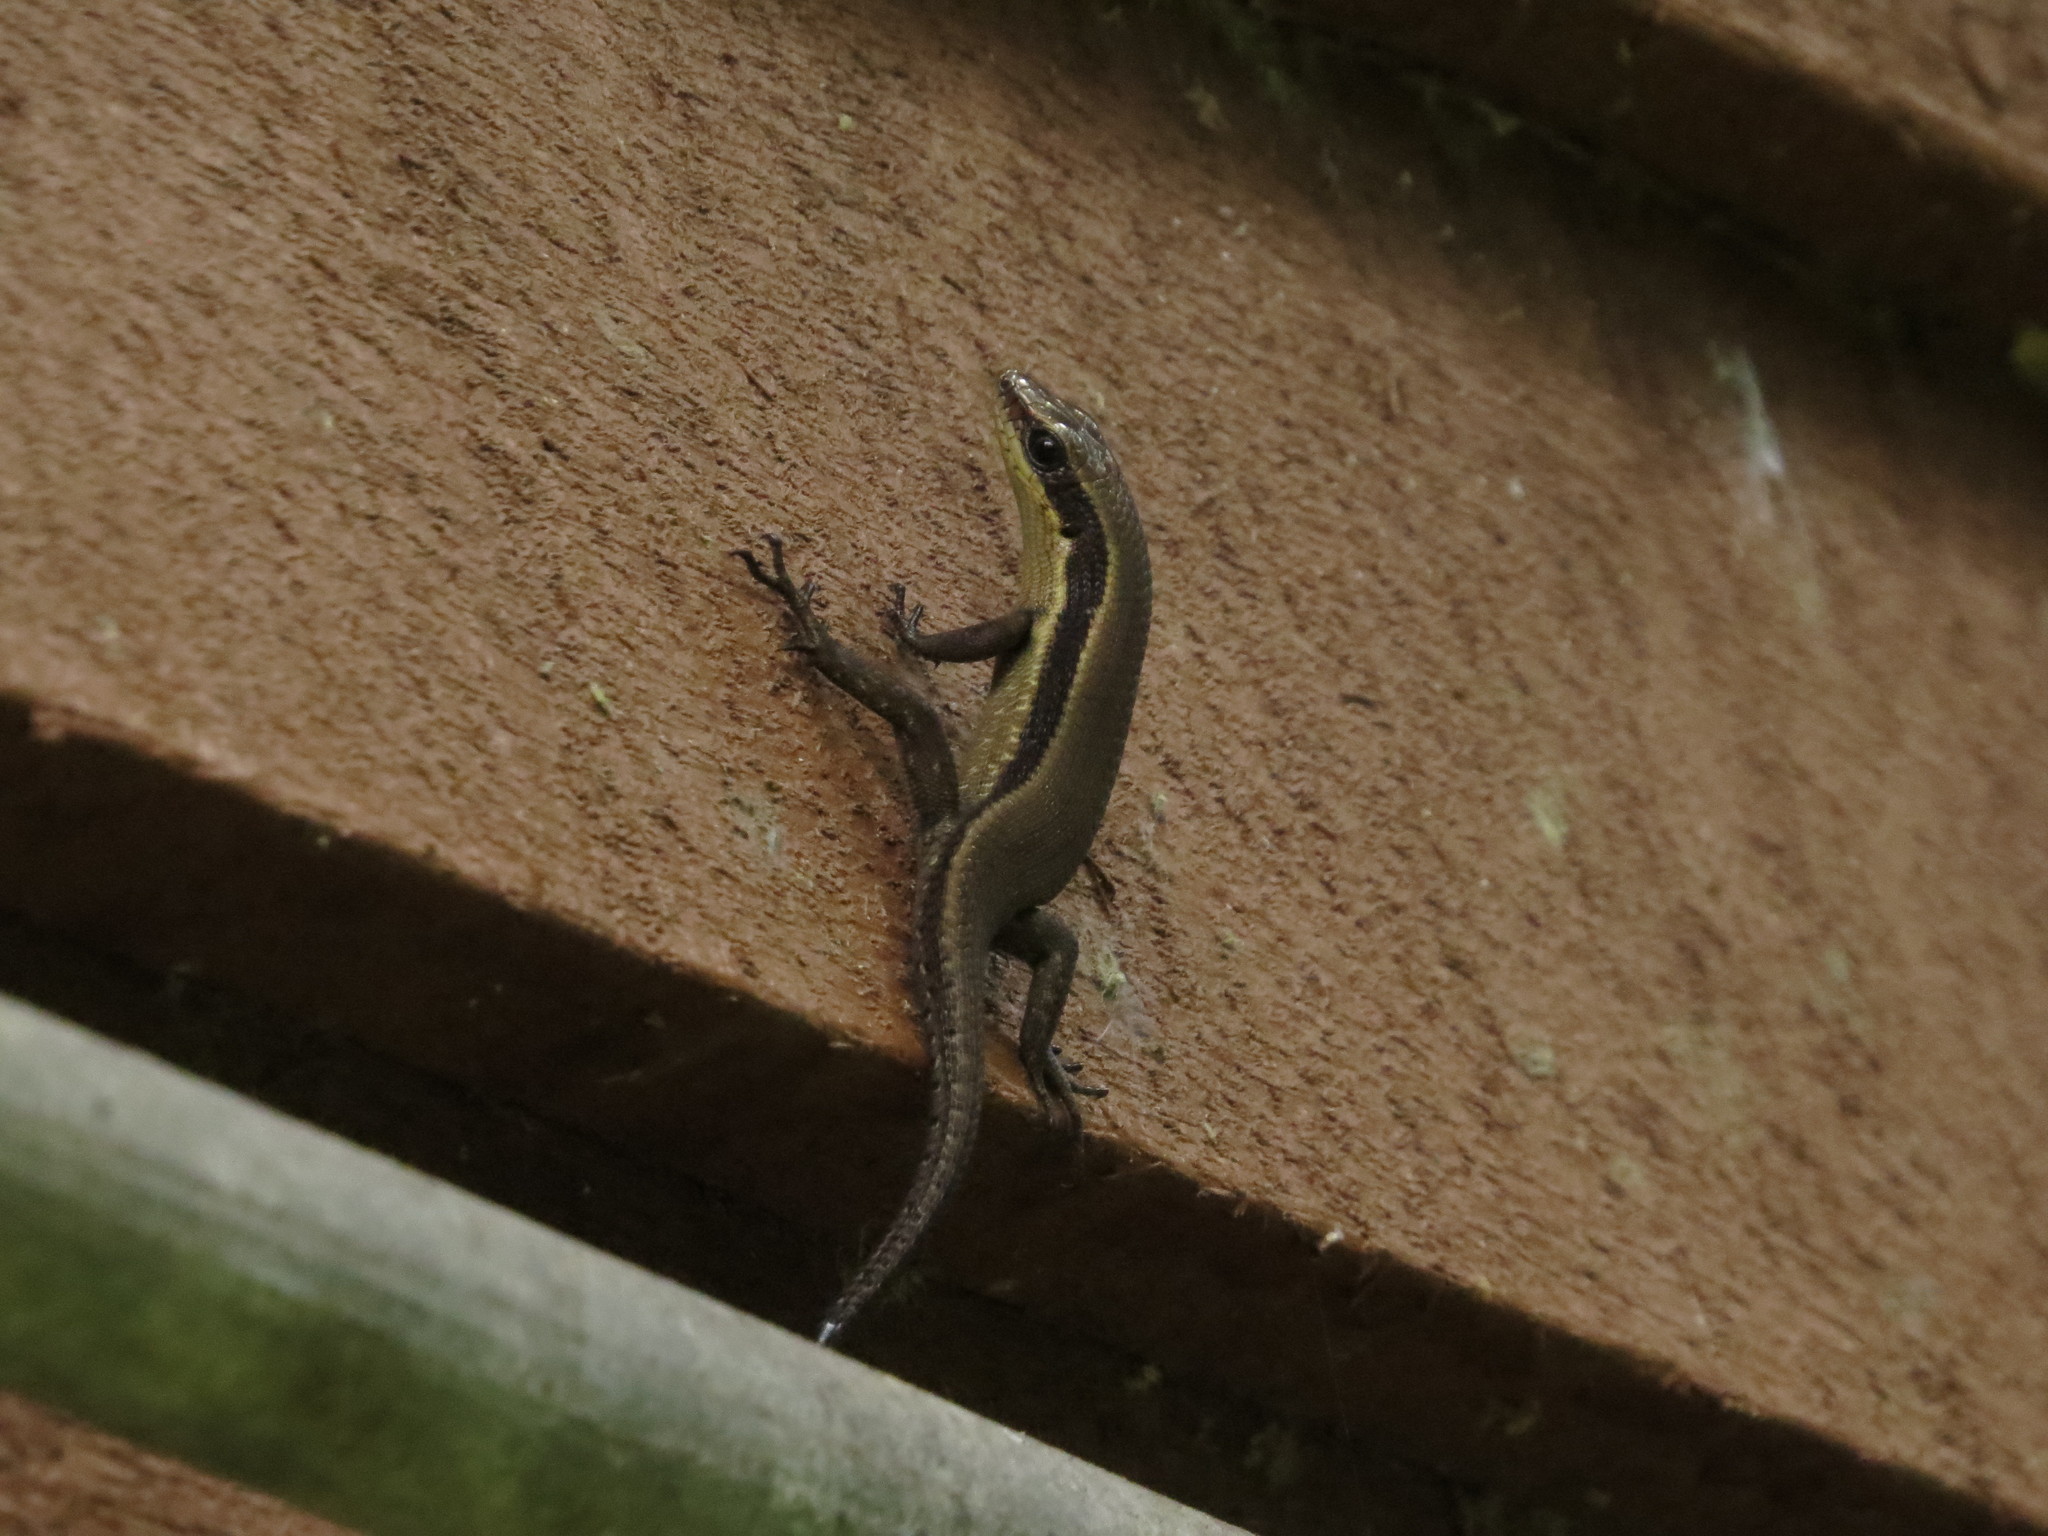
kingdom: Animalia
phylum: Chordata
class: Squamata
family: Scincidae
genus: Eutropis
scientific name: Eutropis rudis
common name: Rough mabuya
